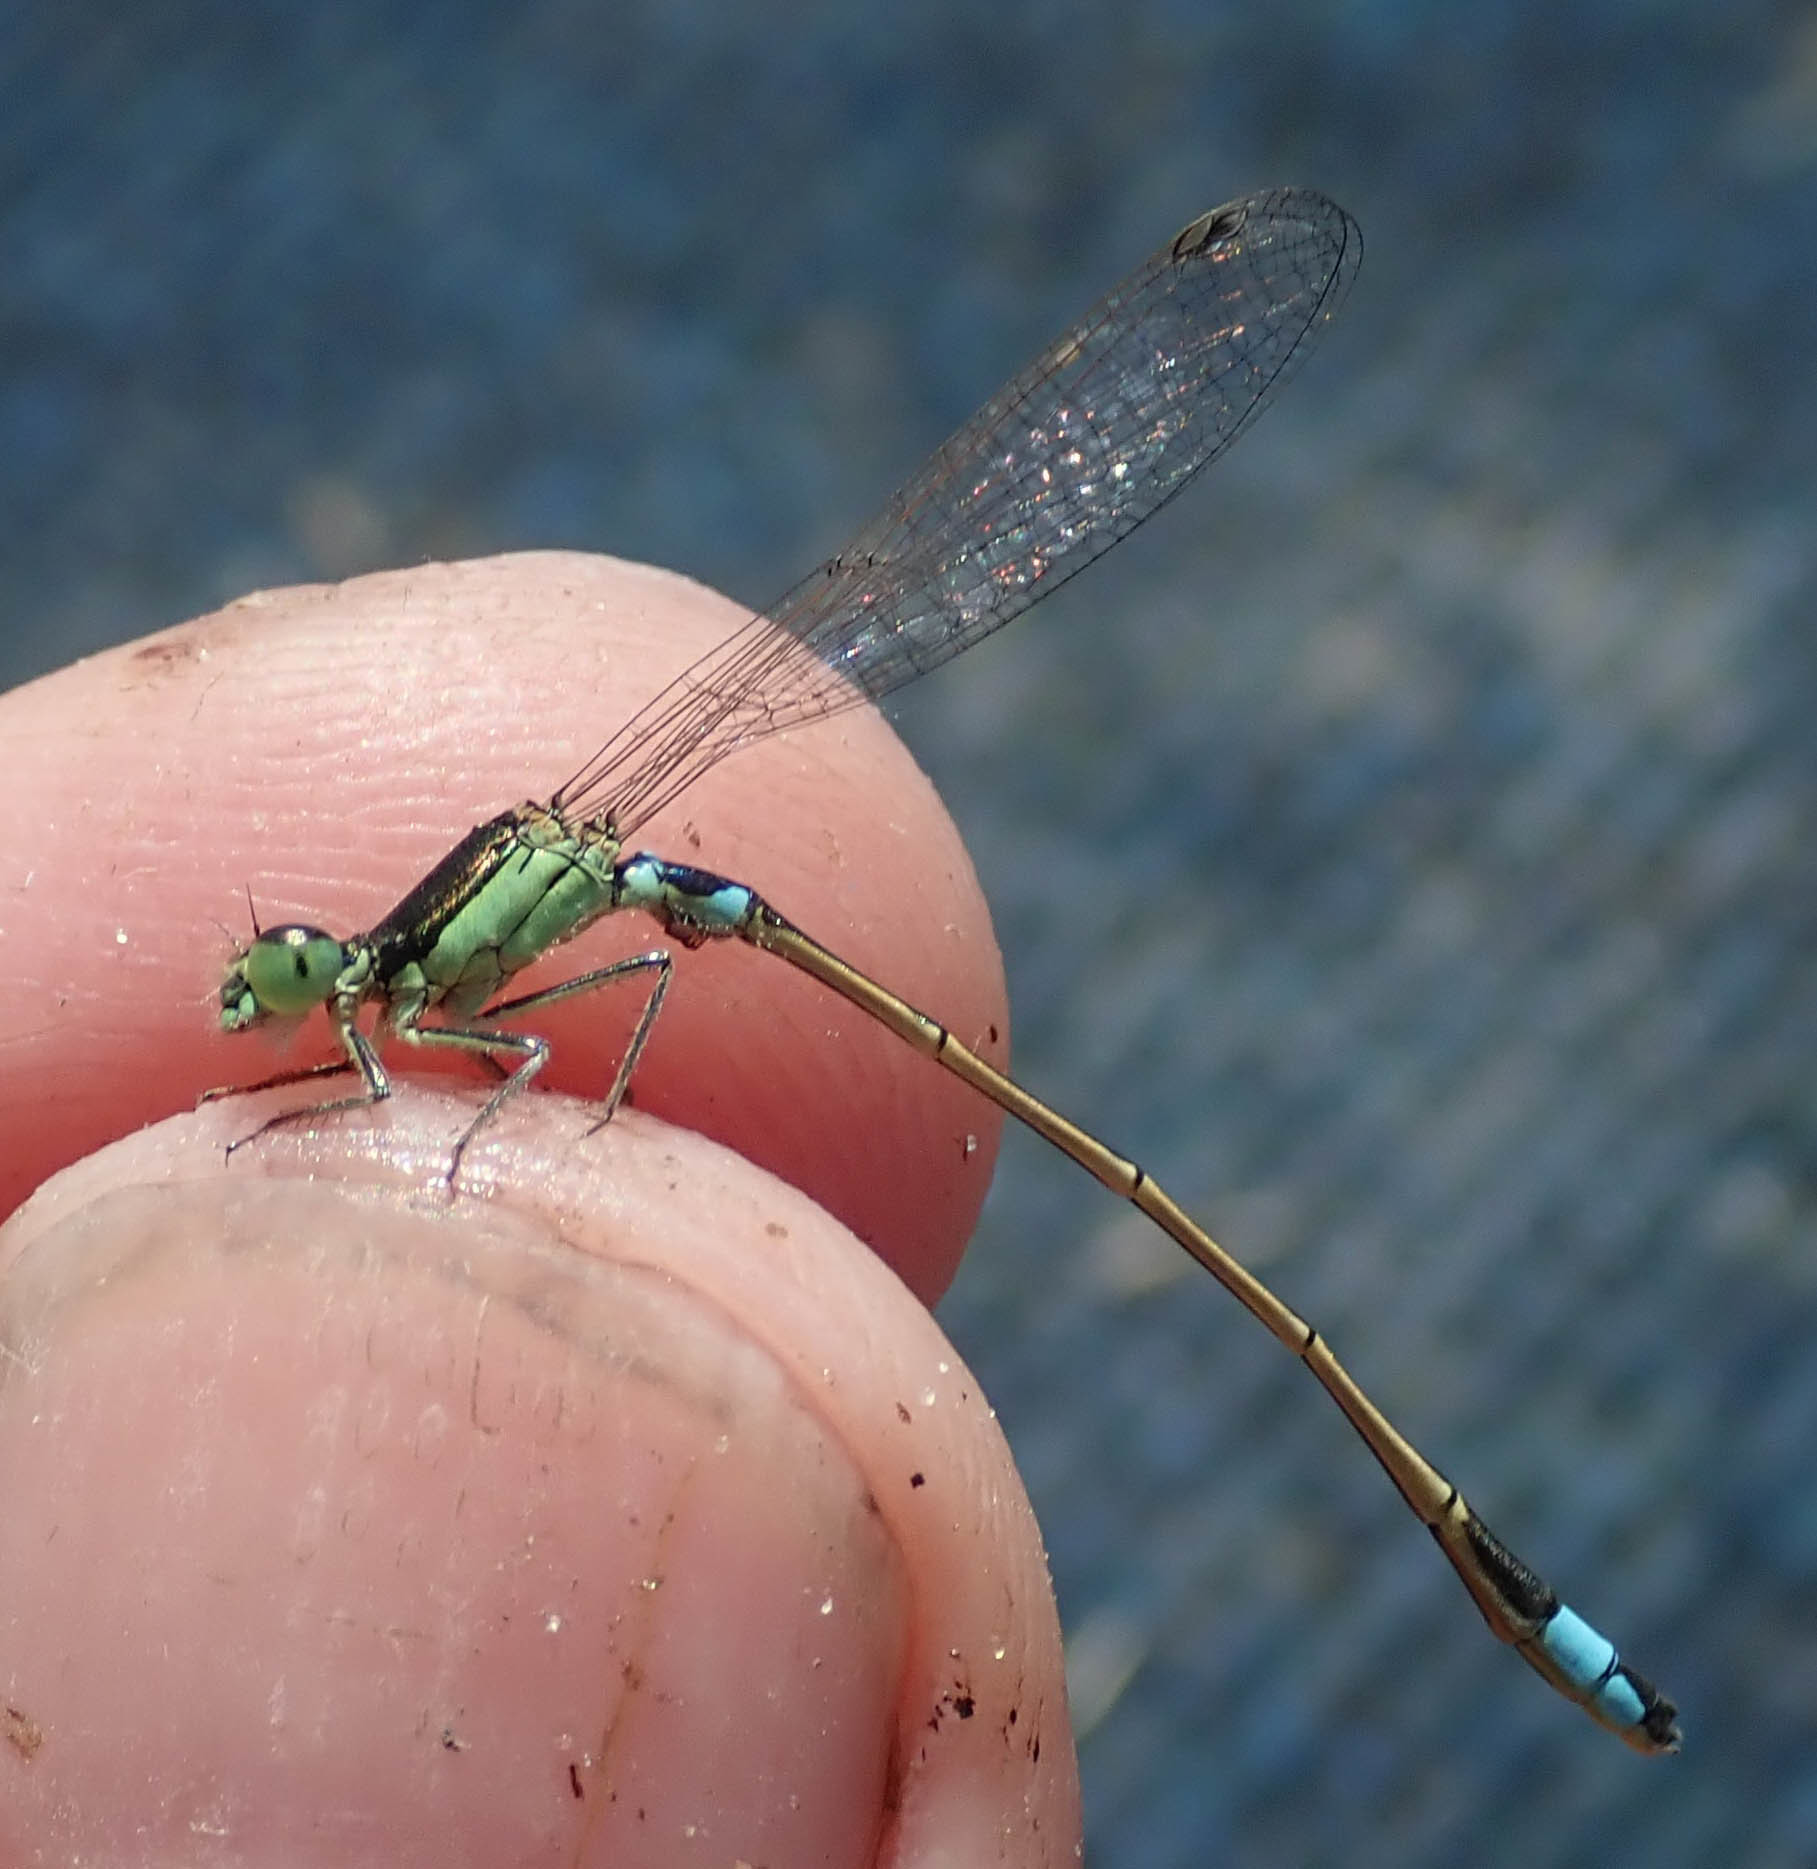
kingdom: Animalia
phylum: Arthropoda
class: Insecta
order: Odonata
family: Coenagrionidae
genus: Ischnura
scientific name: Ischnura senegalensis
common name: Tropical bluetail
